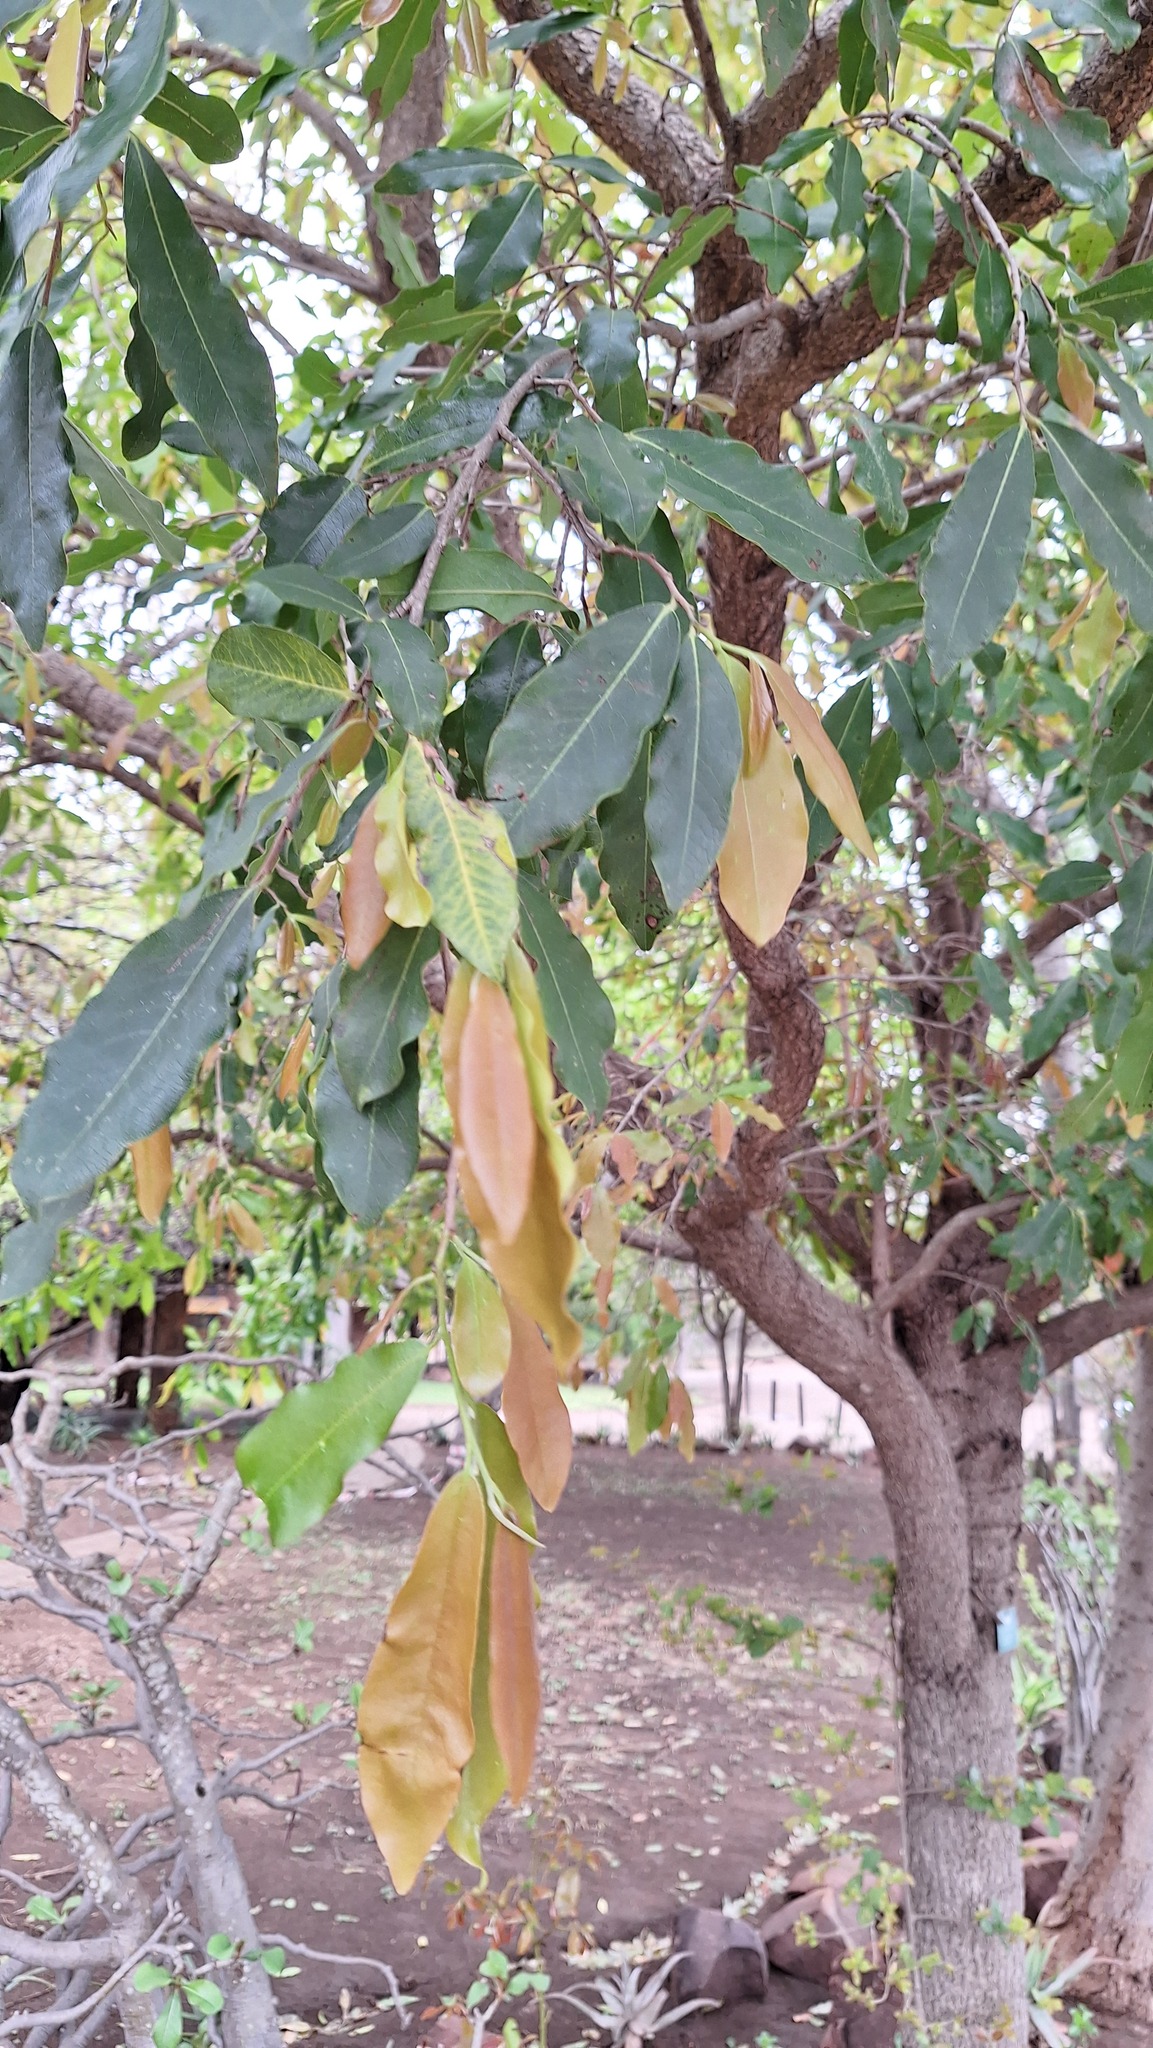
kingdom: Plantae
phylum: Tracheophyta
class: Magnoliopsida
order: Ericales
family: Ebenaceae
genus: Diospyros
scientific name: Diospyros mespiliformis
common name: Ebony diospyros
